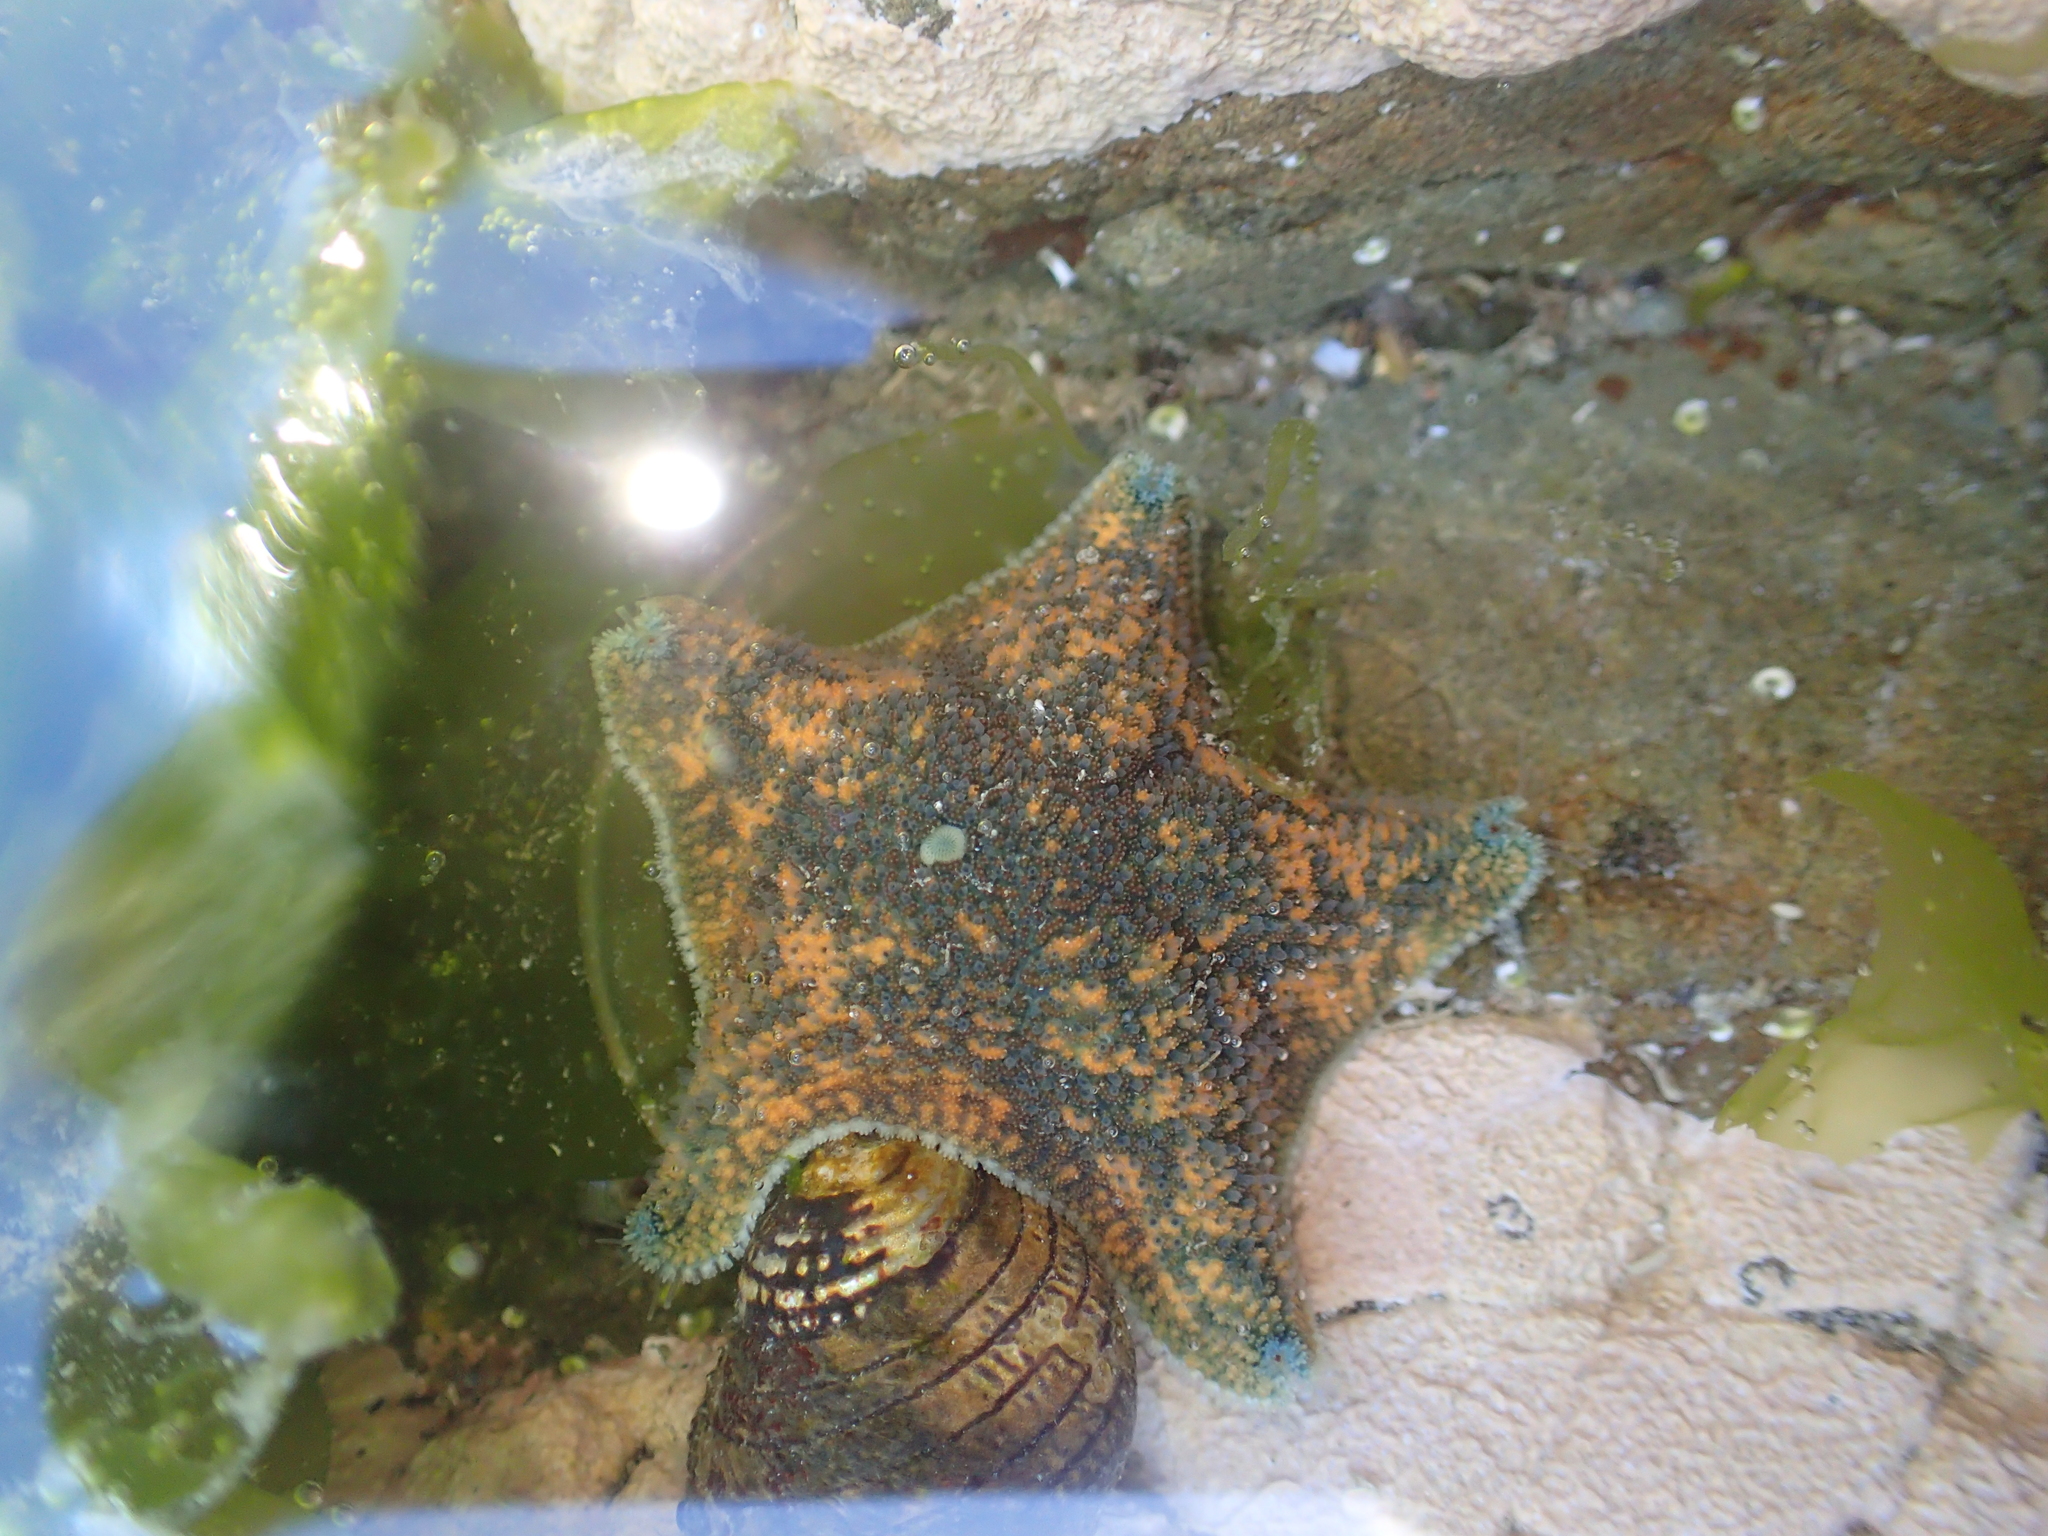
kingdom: Animalia
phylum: Echinodermata
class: Asteroidea
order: Valvatida
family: Asterinidae
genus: Patiriella
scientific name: Patiriella regularis
